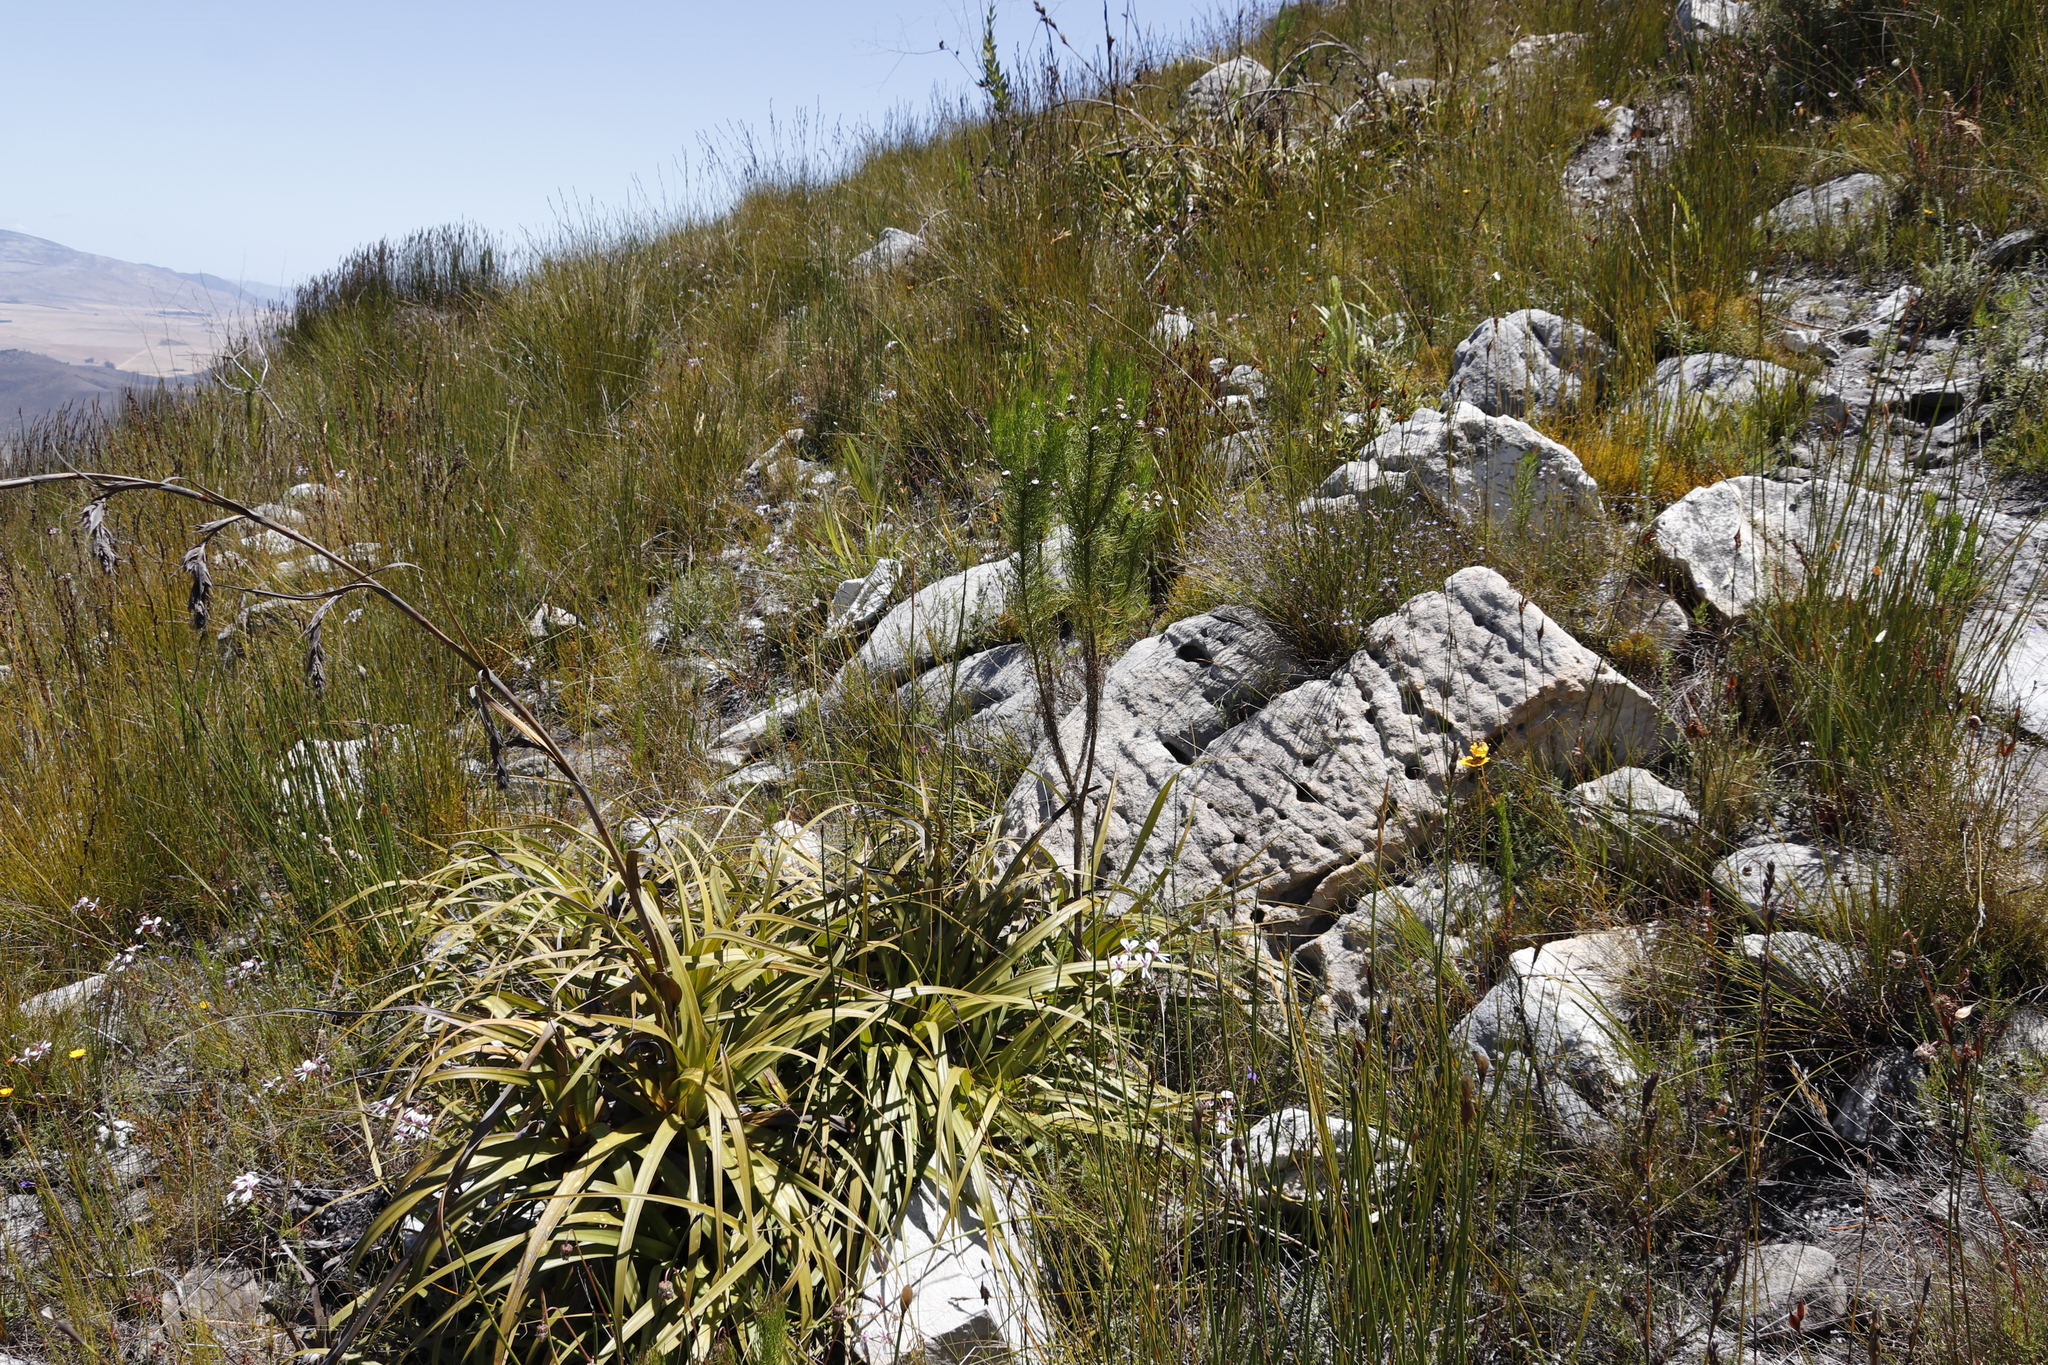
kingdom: Plantae
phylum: Tracheophyta
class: Liliopsida
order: Poales
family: Cyperaceae
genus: Tetraria
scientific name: Tetraria thermalis
